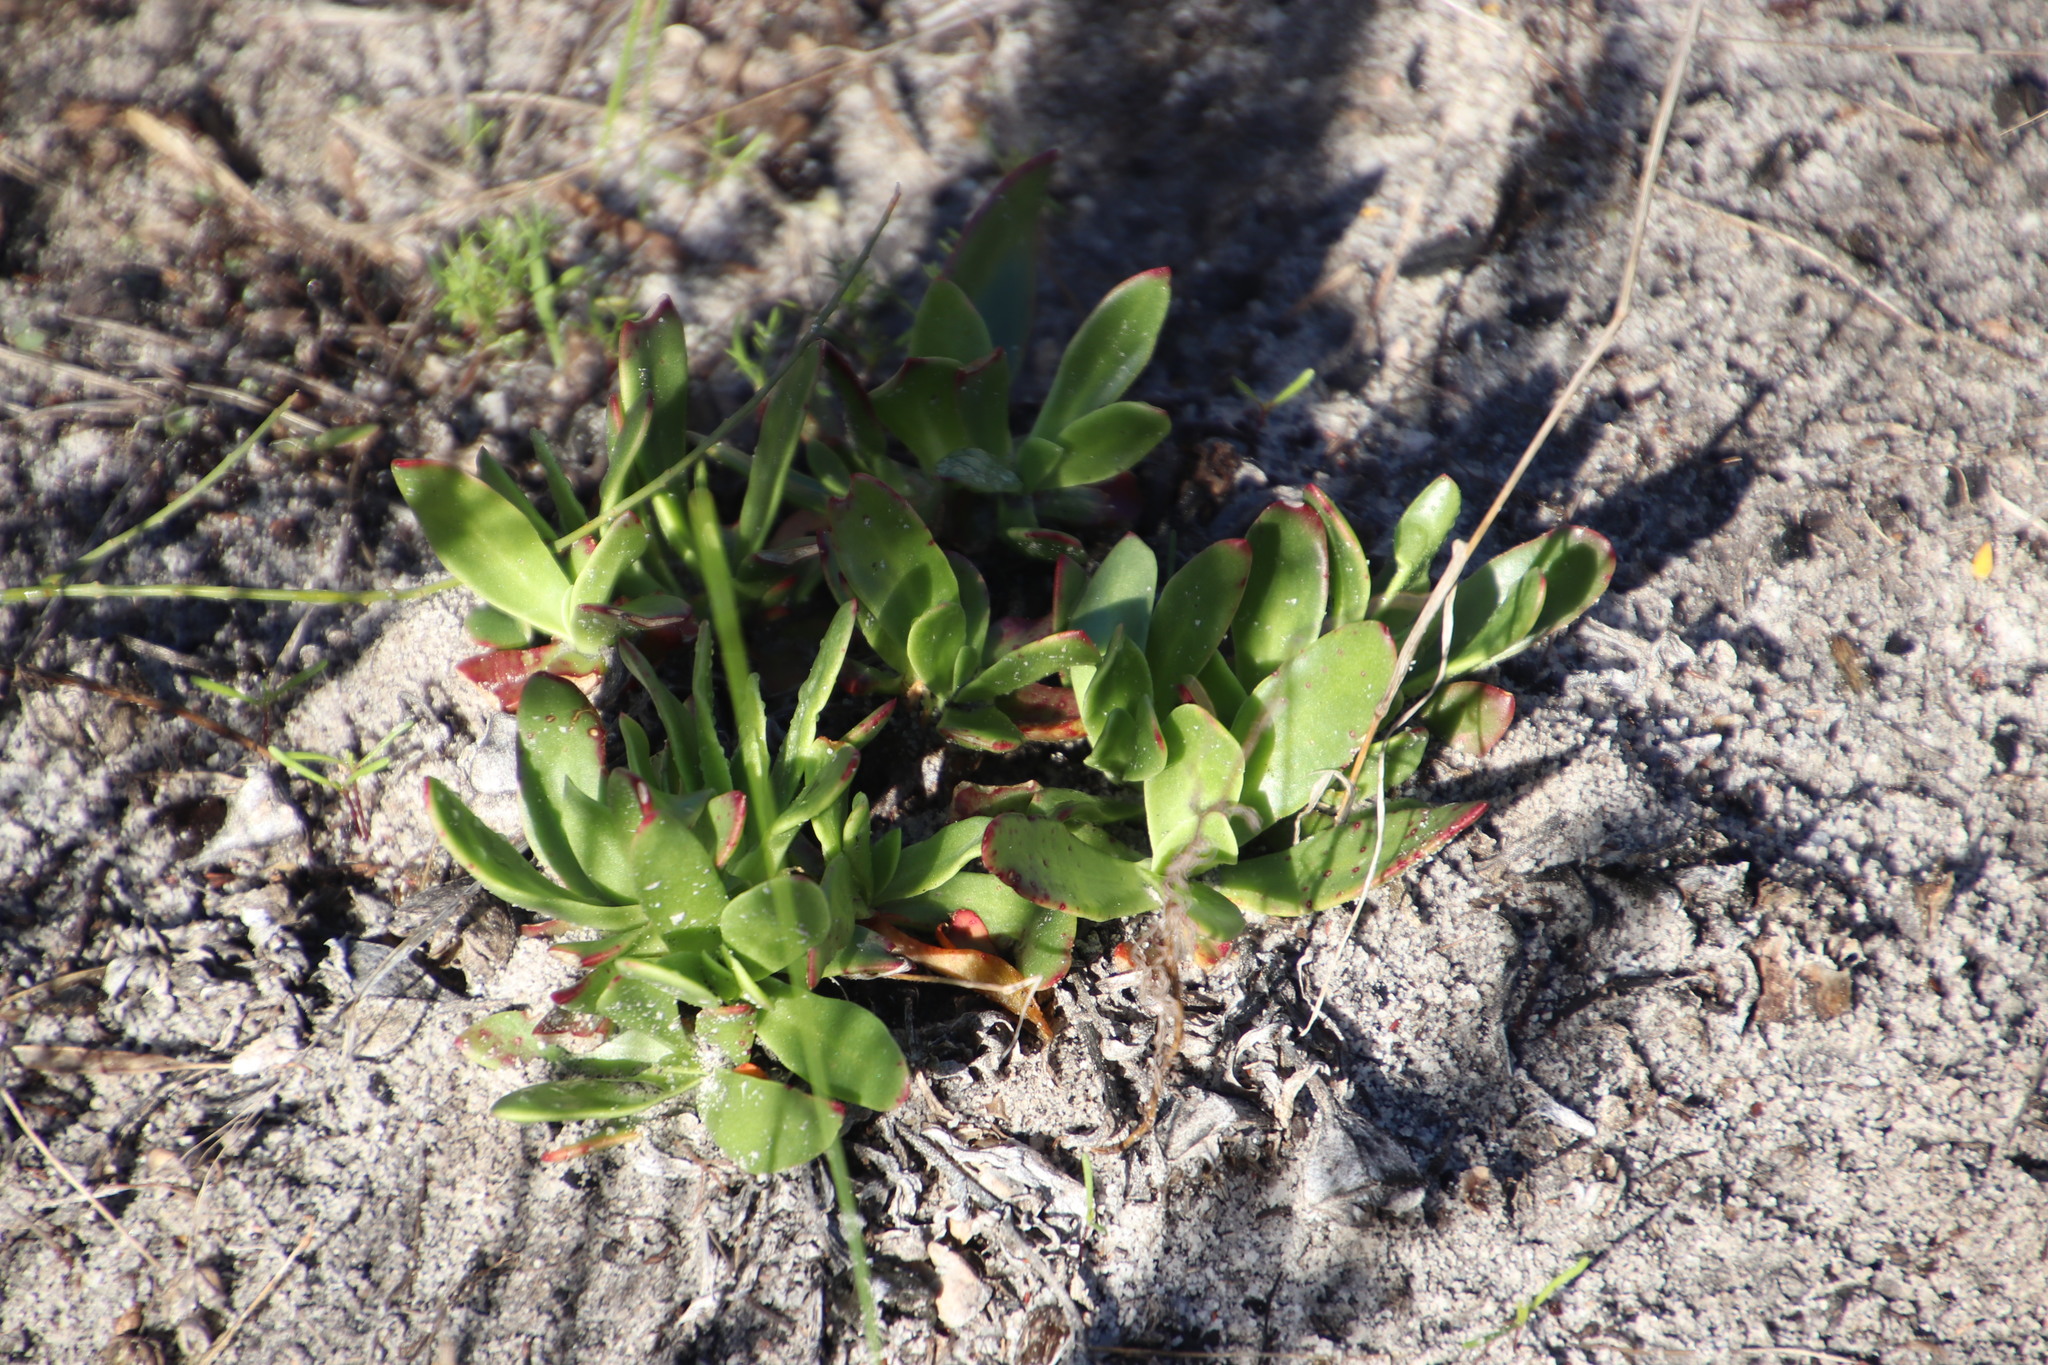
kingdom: Plantae
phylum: Tracheophyta
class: Magnoliopsida
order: Caryophyllales
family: Aizoaceae
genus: Skiatophytum
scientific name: Skiatophytum tripolium
